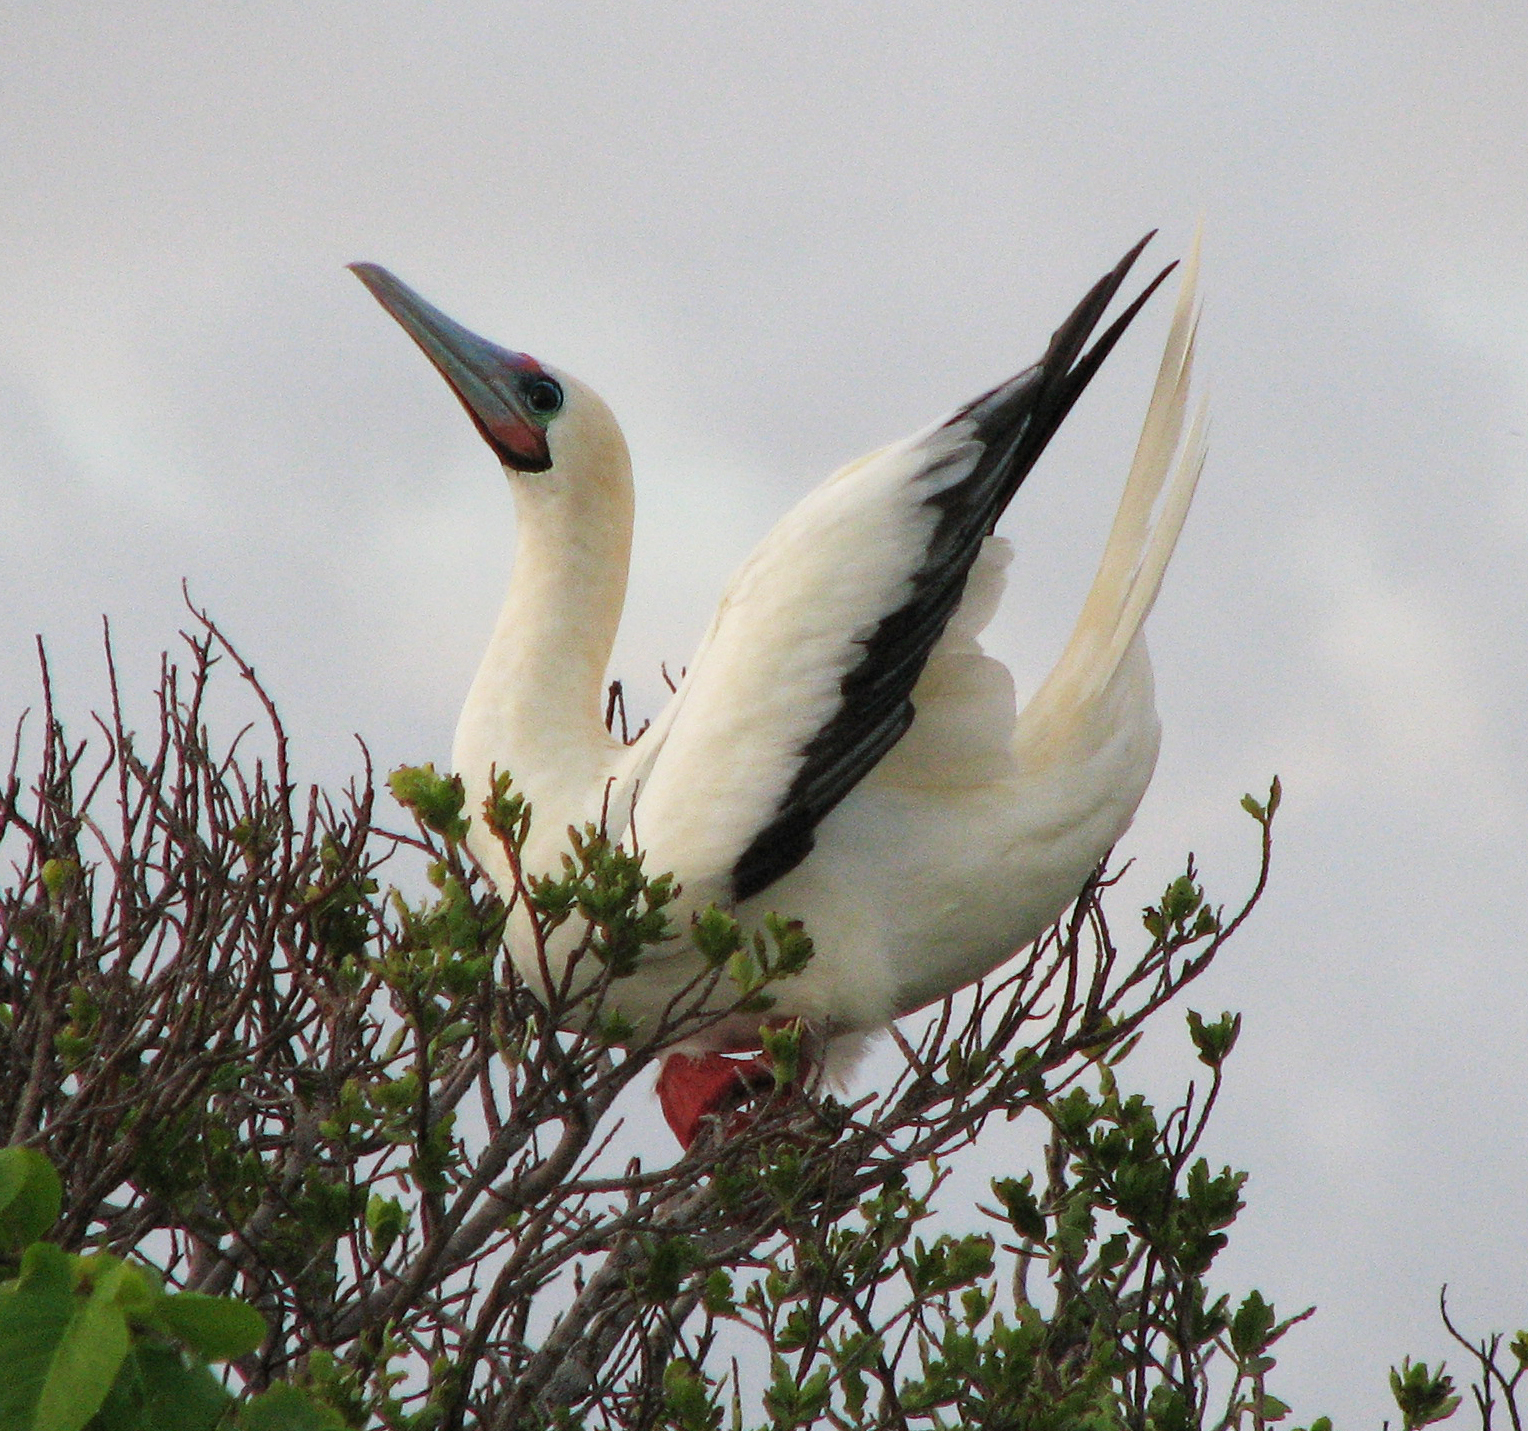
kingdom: Animalia
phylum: Chordata
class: Aves
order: Suliformes
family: Sulidae
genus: Sula
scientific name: Sula sula
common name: Red-footed booby
